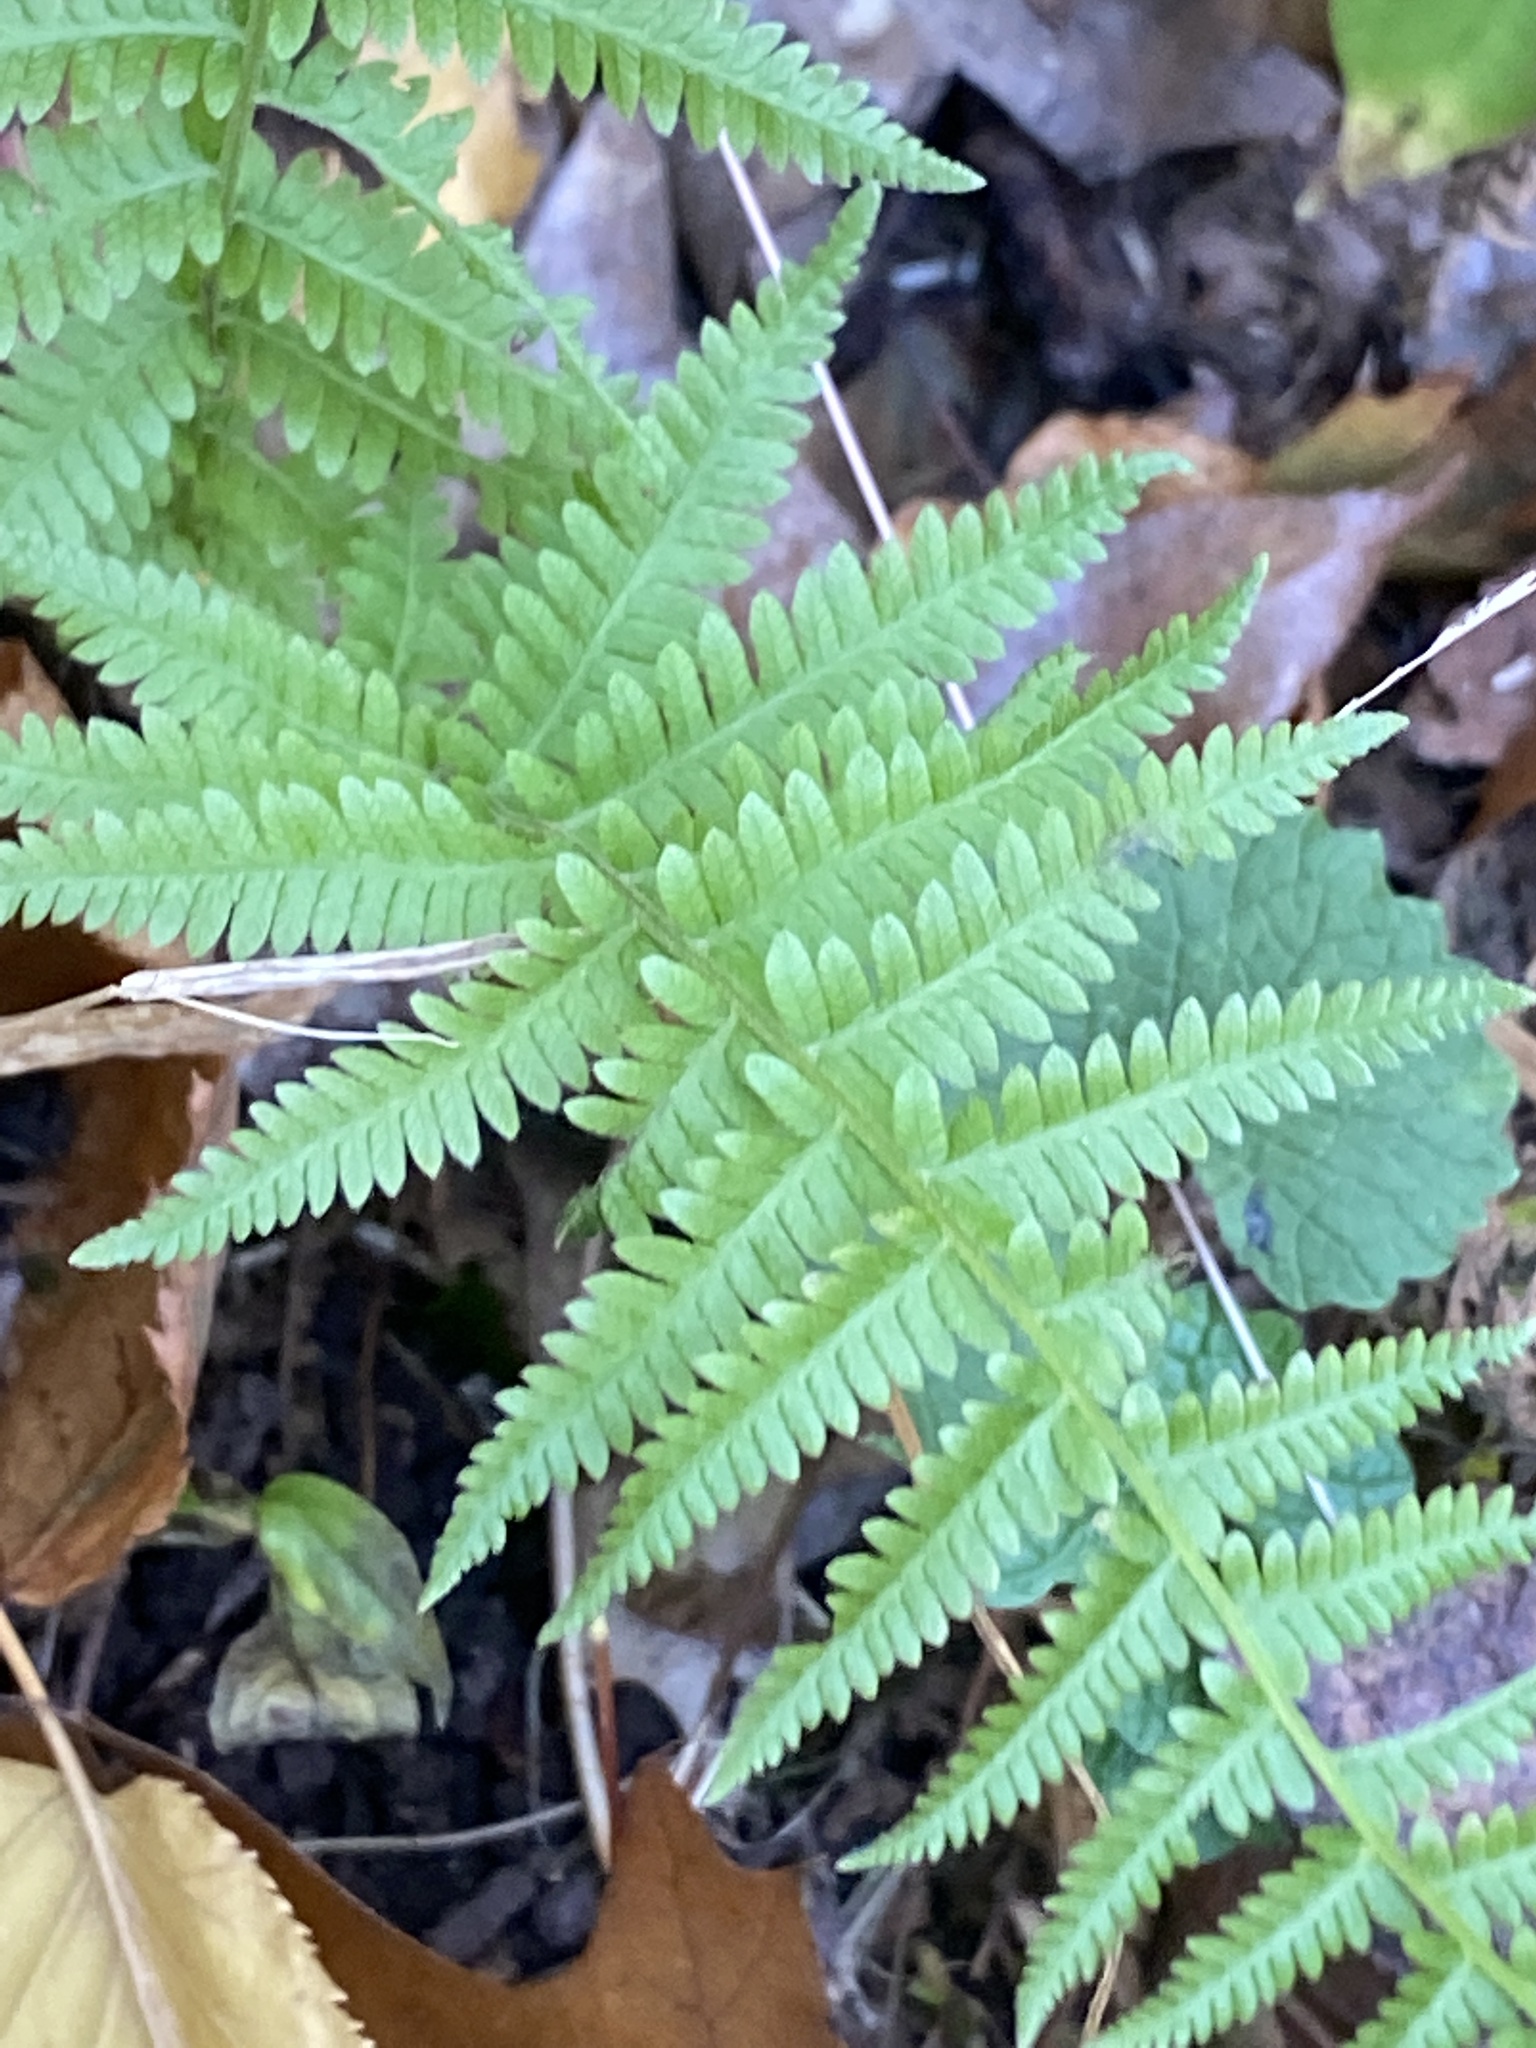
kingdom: Plantae
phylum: Tracheophyta
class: Polypodiopsida
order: Polypodiales
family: Thelypteridaceae
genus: Amauropelta
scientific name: Amauropelta noveboracensis
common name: New york fern
